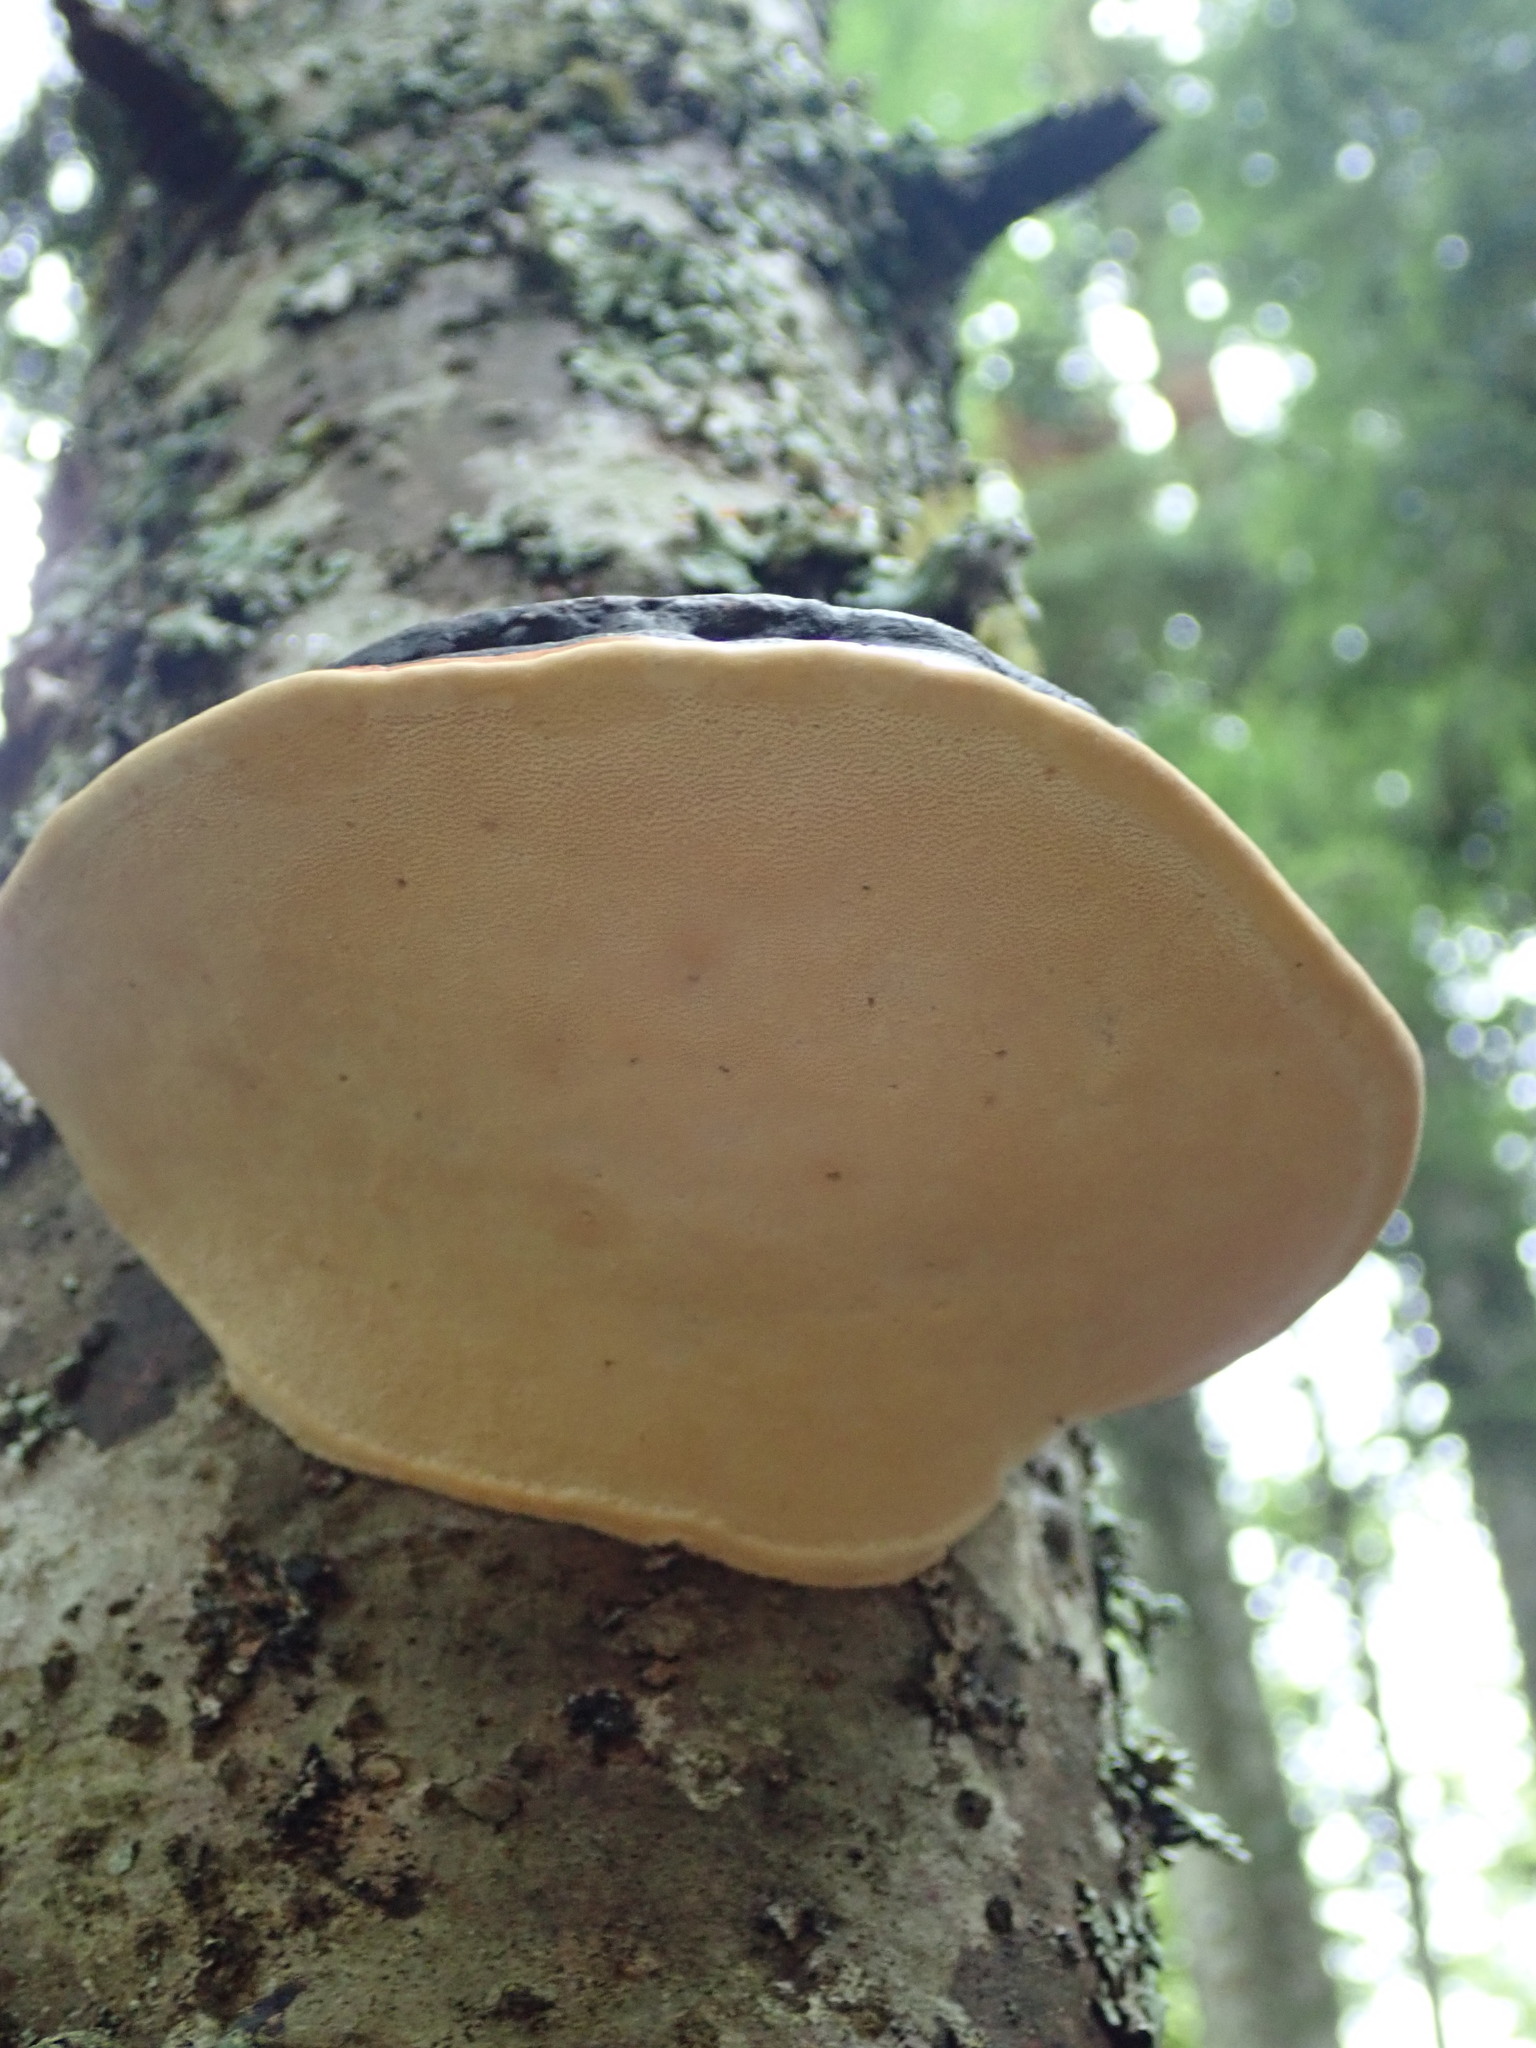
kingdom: Fungi
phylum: Basidiomycota
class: Agaricomycetes
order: Polyporales
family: Fomitopsidaceae
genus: Fomitopsis
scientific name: Fomitopsis pinicola
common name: Red-belted bracket
